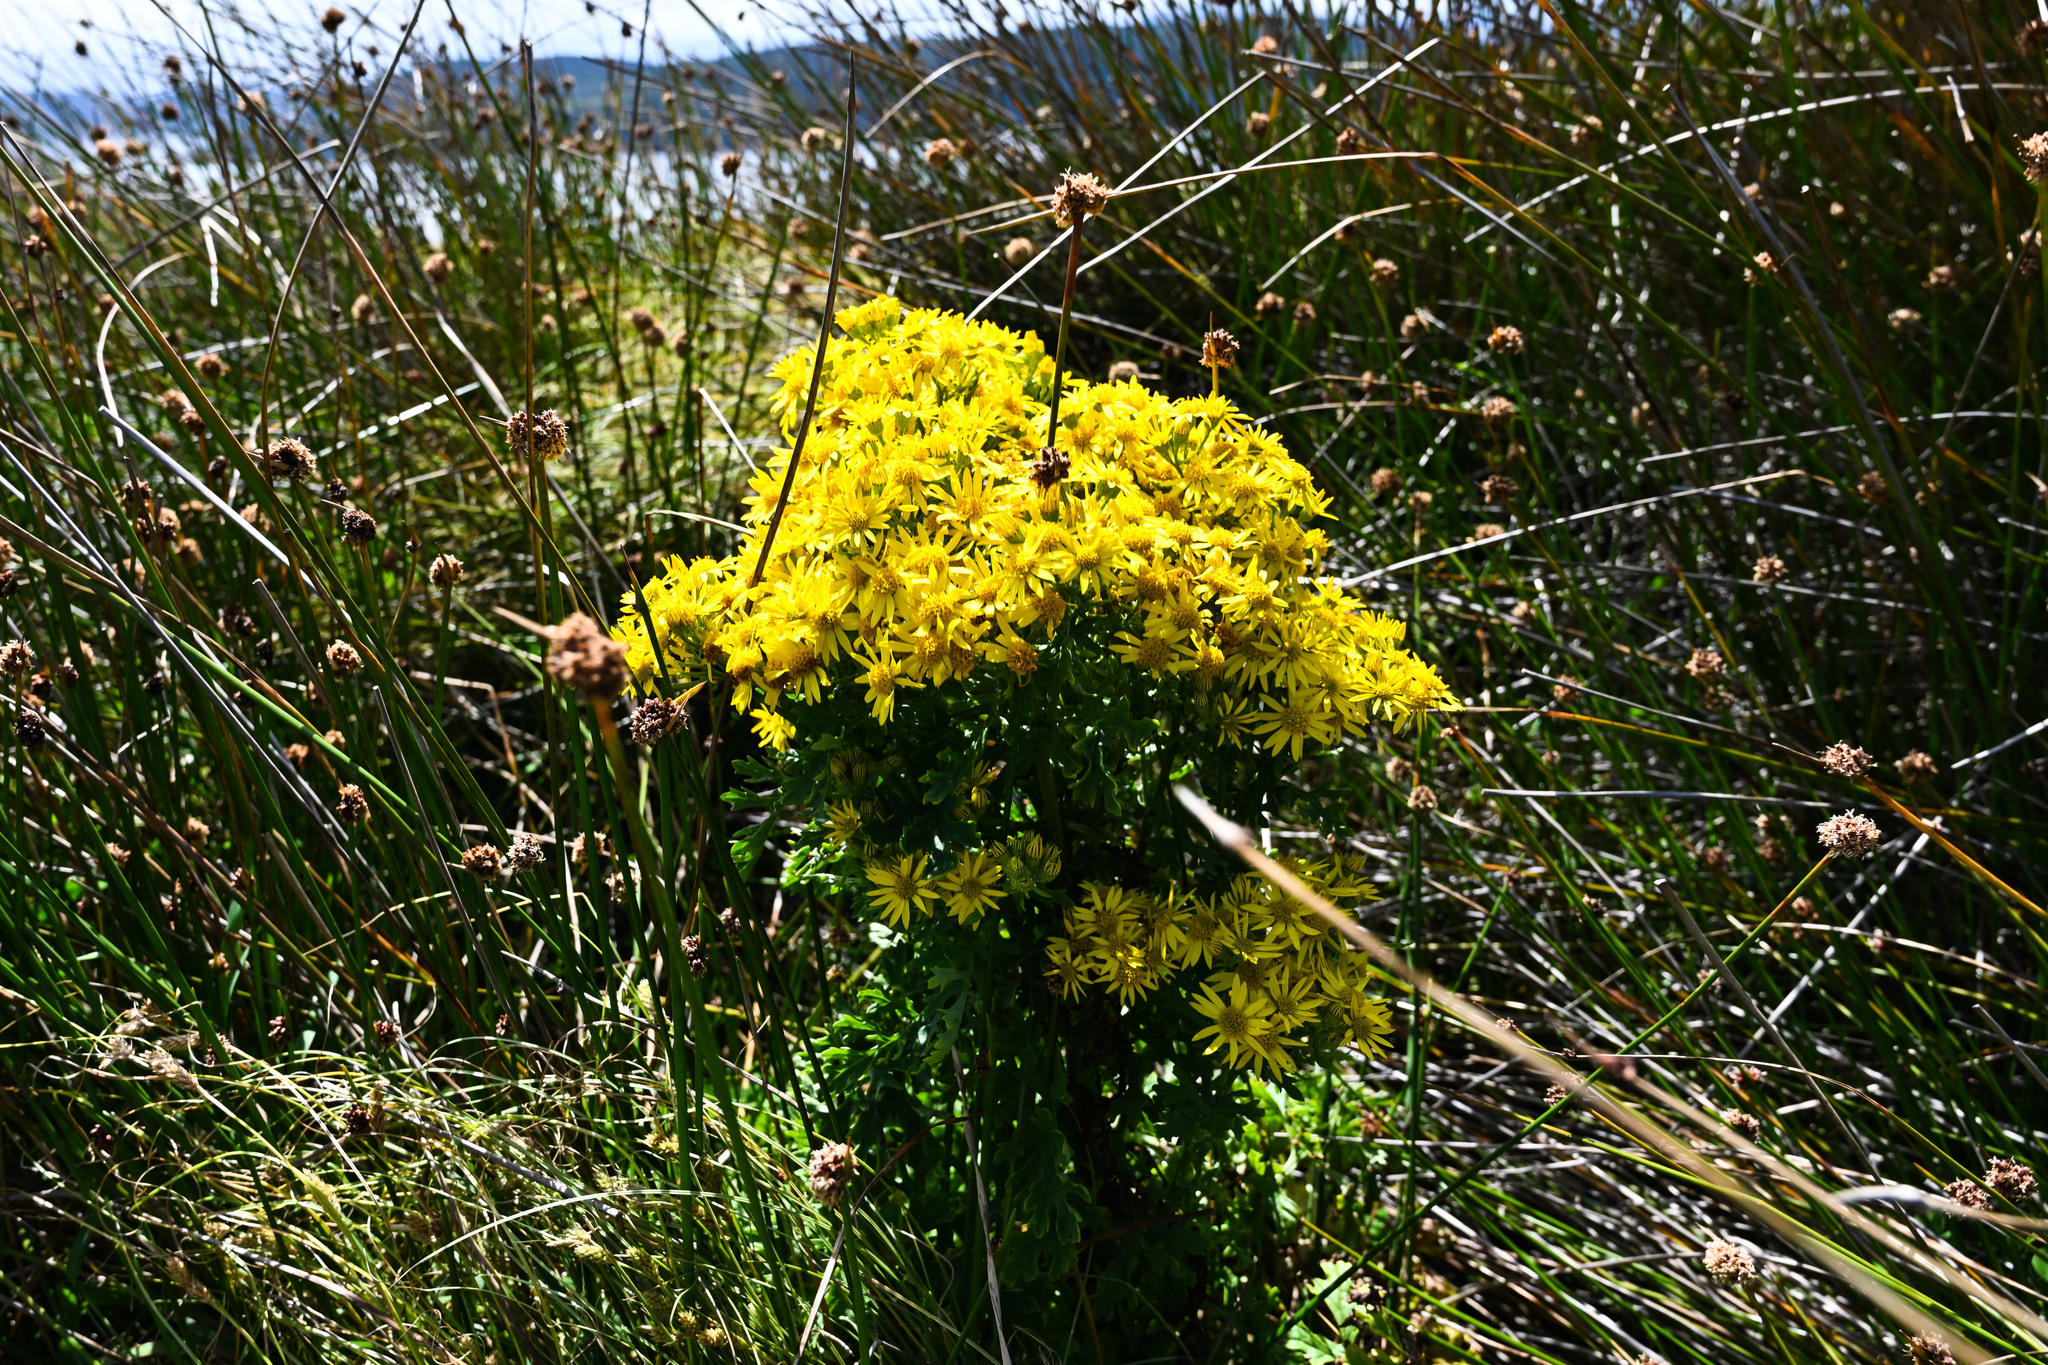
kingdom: Plantae
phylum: Tracheophyta
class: Magnoliopsida
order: Asterales
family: Asteraceae
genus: Jacobaea
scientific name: Jacobaea vulgaris
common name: Stinking willie
